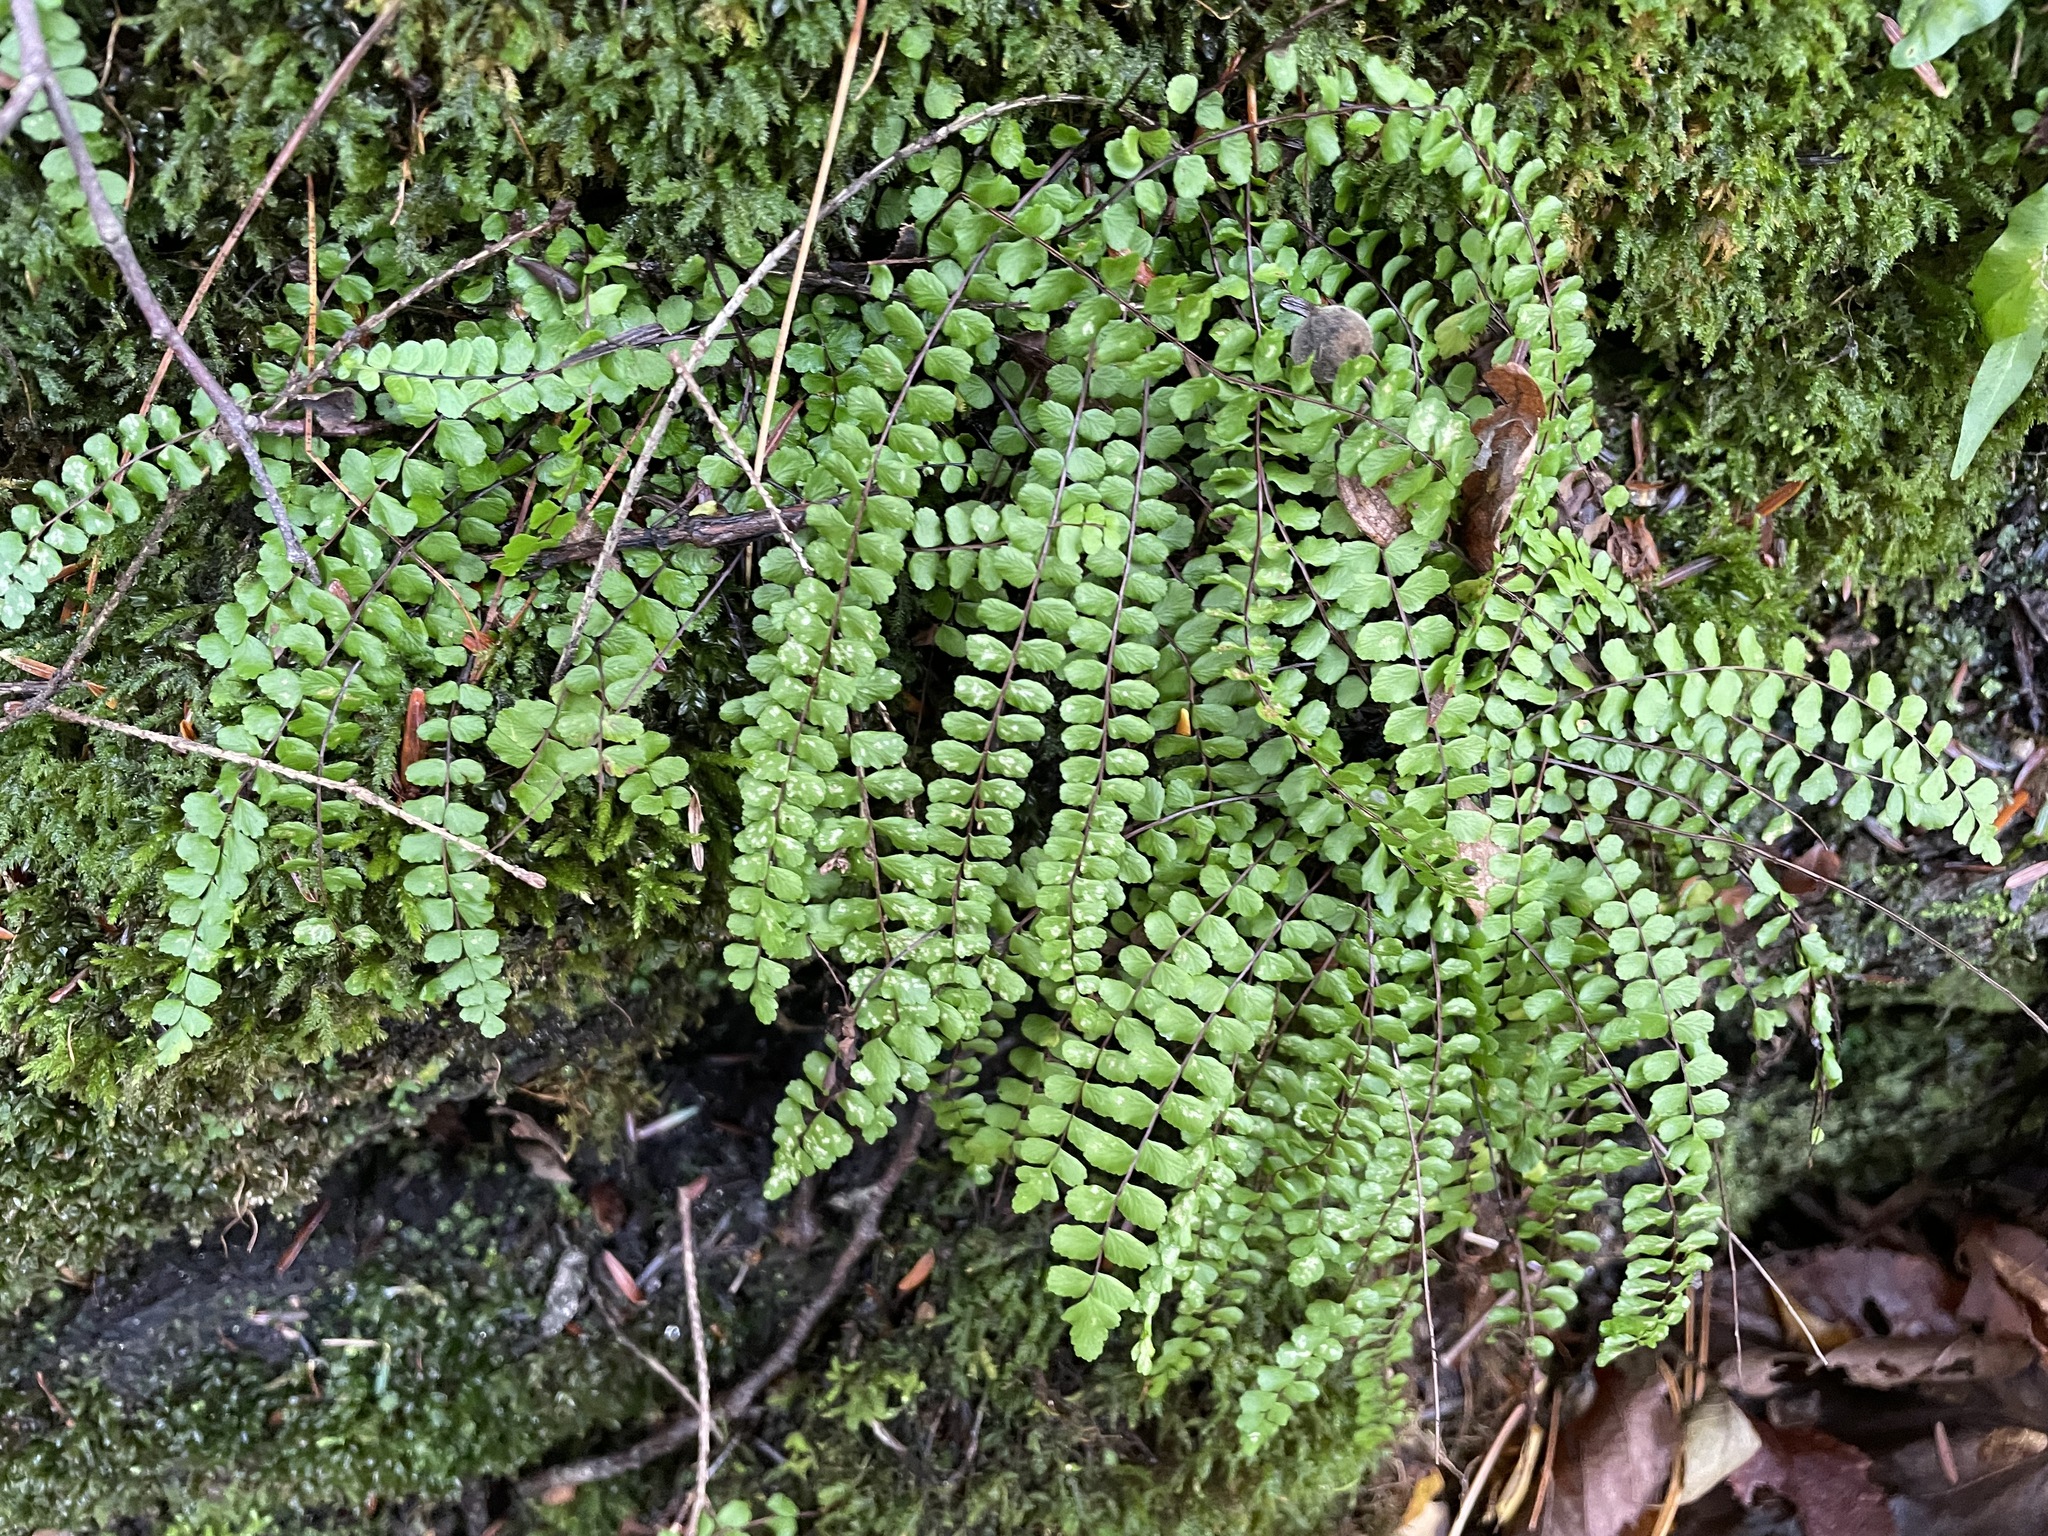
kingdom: Plantae
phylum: Tracheophyta
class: Polypodiopsida
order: Polypodiales
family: Aspleniaceae
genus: Asplenium
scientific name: Asplenium trichomanes
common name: Maidenhair spleenwort
